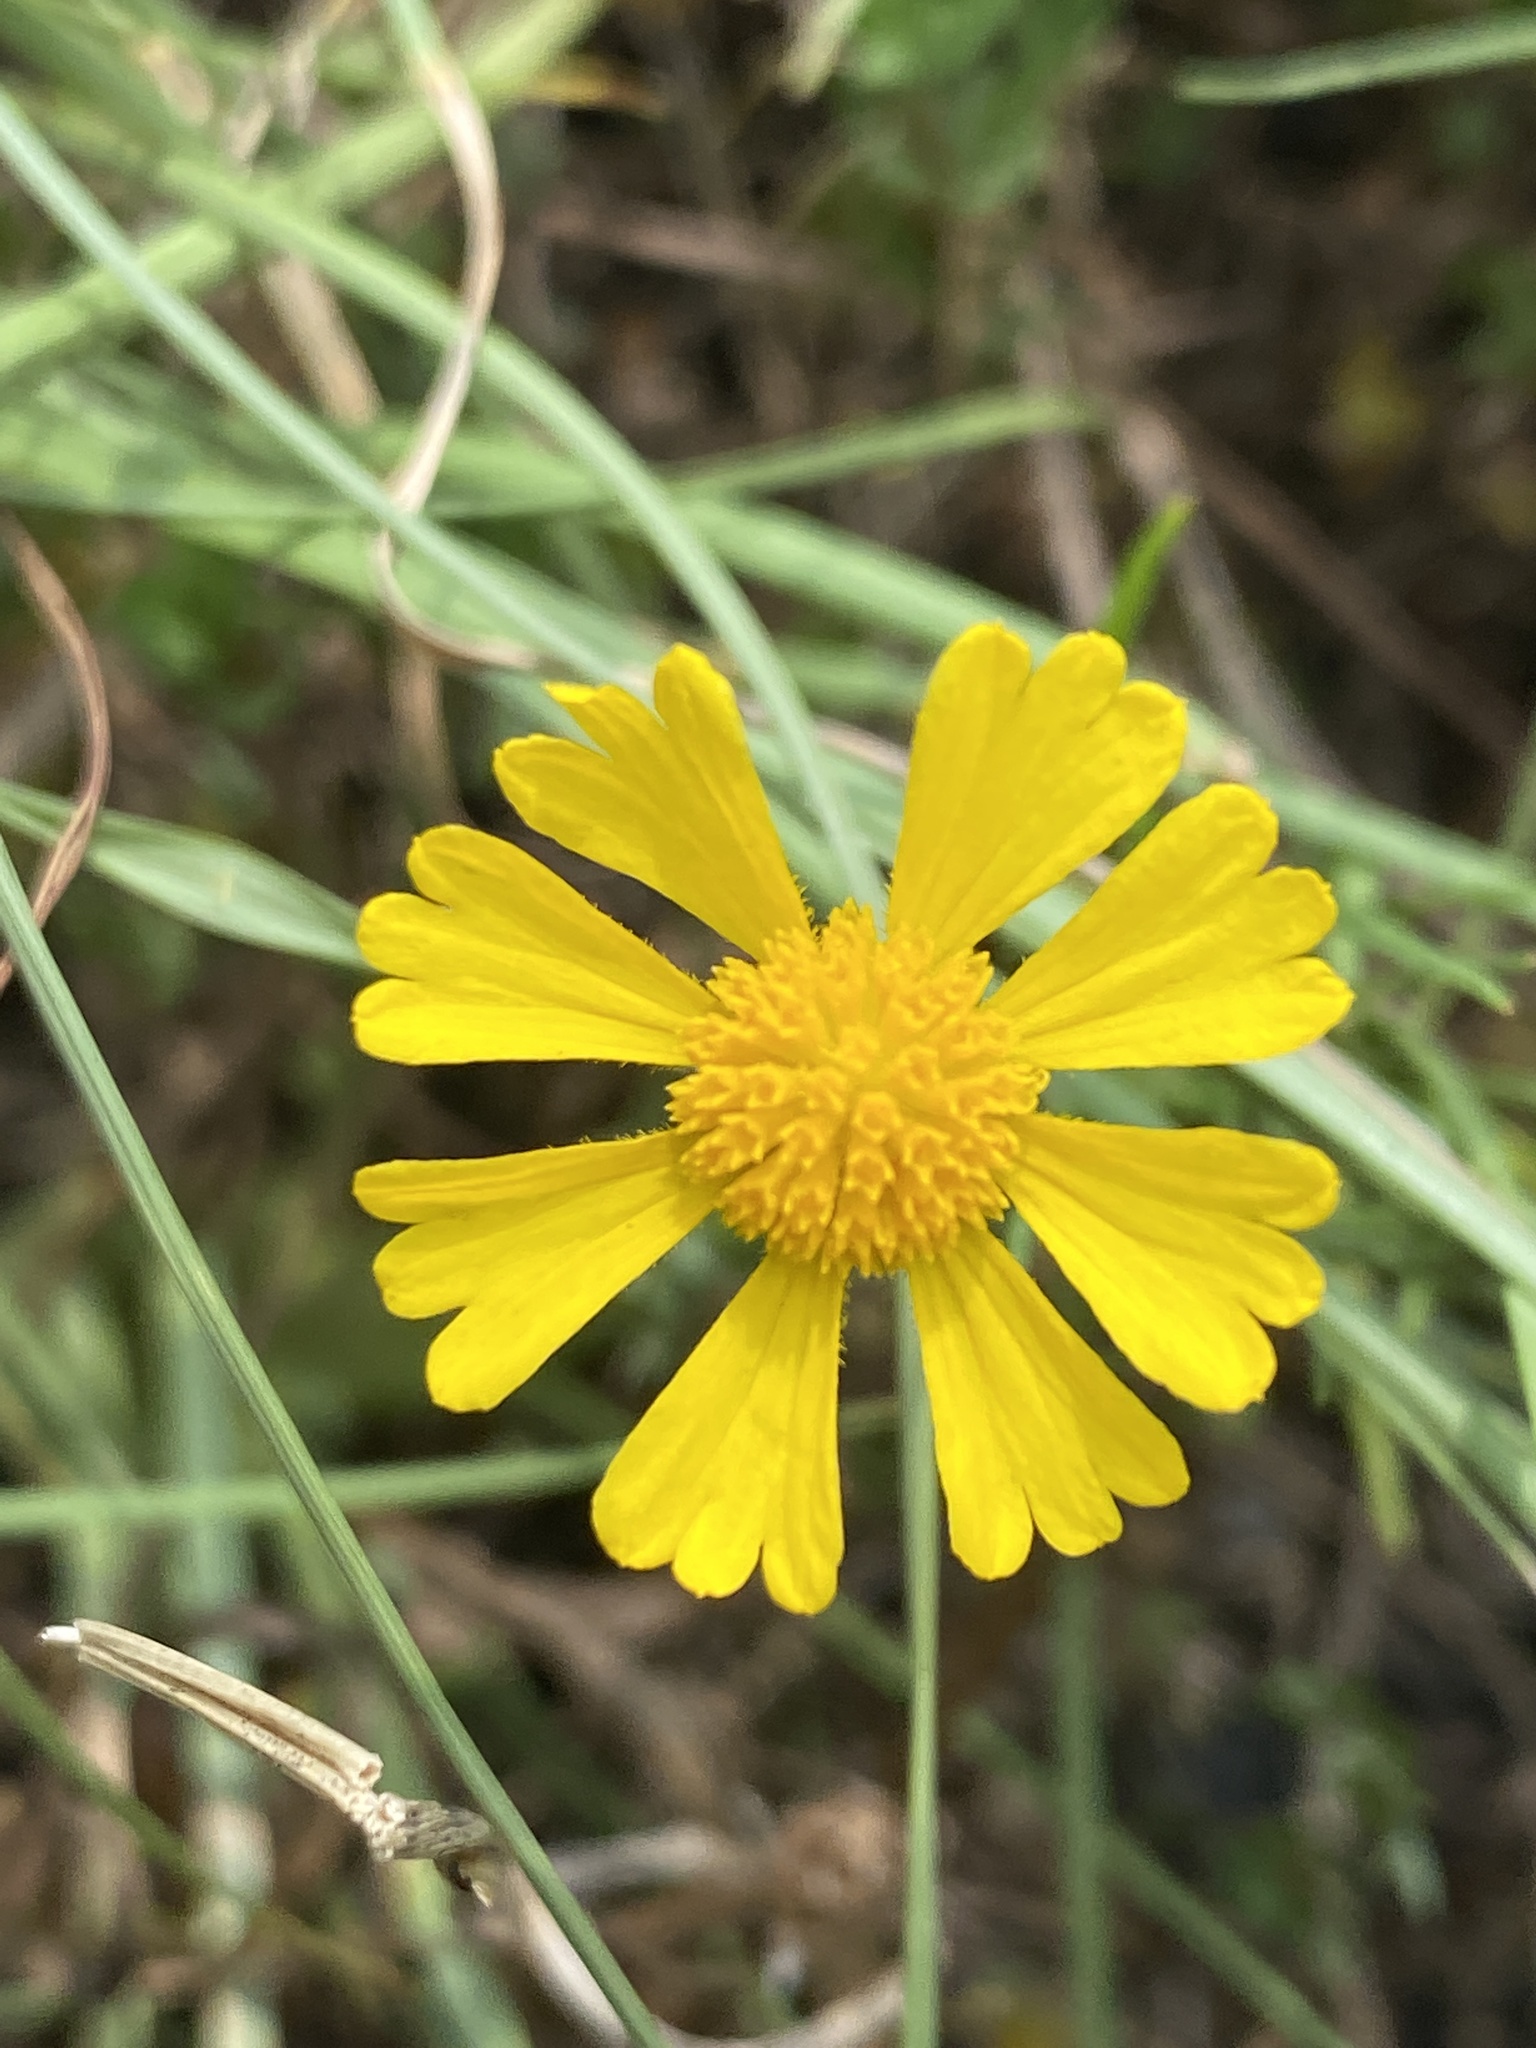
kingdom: Plantae
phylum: Tracheophyta
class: Magnoliopsida
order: Asterales
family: Asteraceae
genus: Helenium
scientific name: Helenium amarum
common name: Bitter sneezeweed
